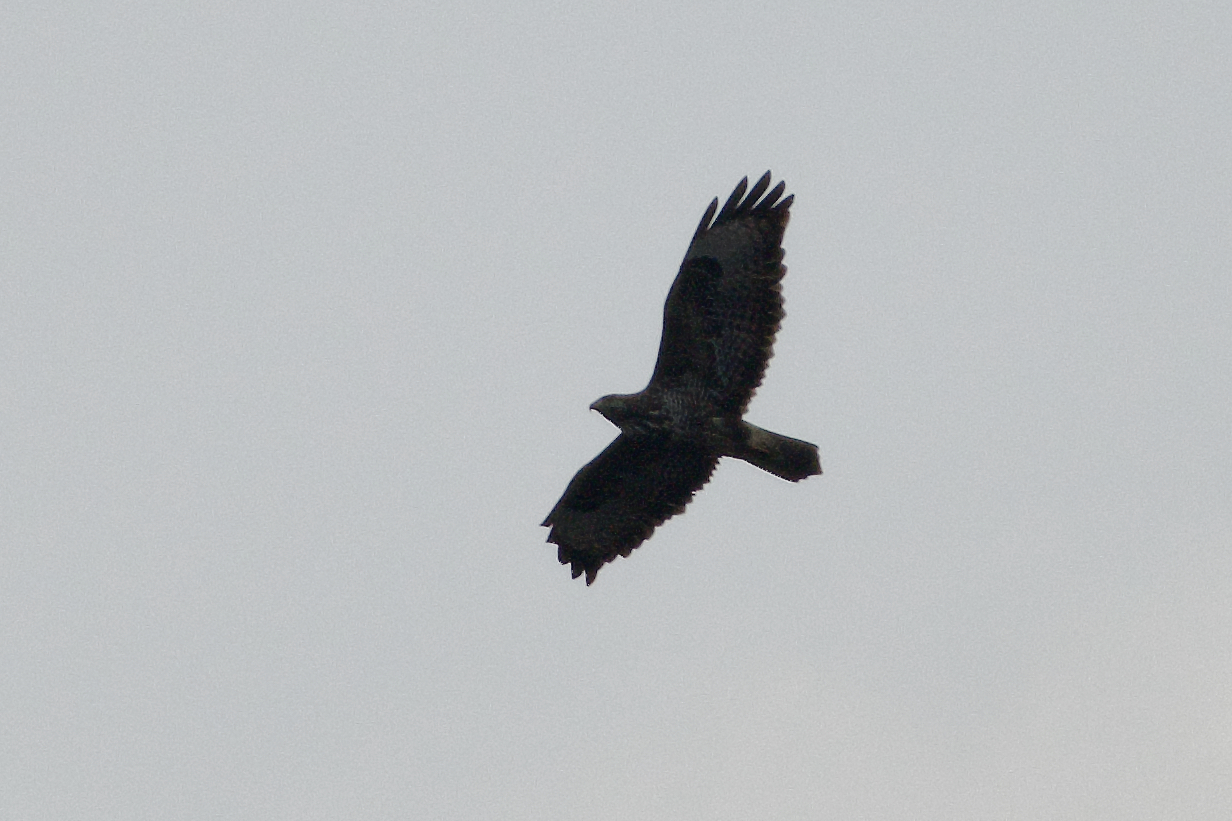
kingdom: Animalia
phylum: Chordata
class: Aves
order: Accipitriformes
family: Accipitridae
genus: Buteo
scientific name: Buteo buteo
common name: Common buzzard
